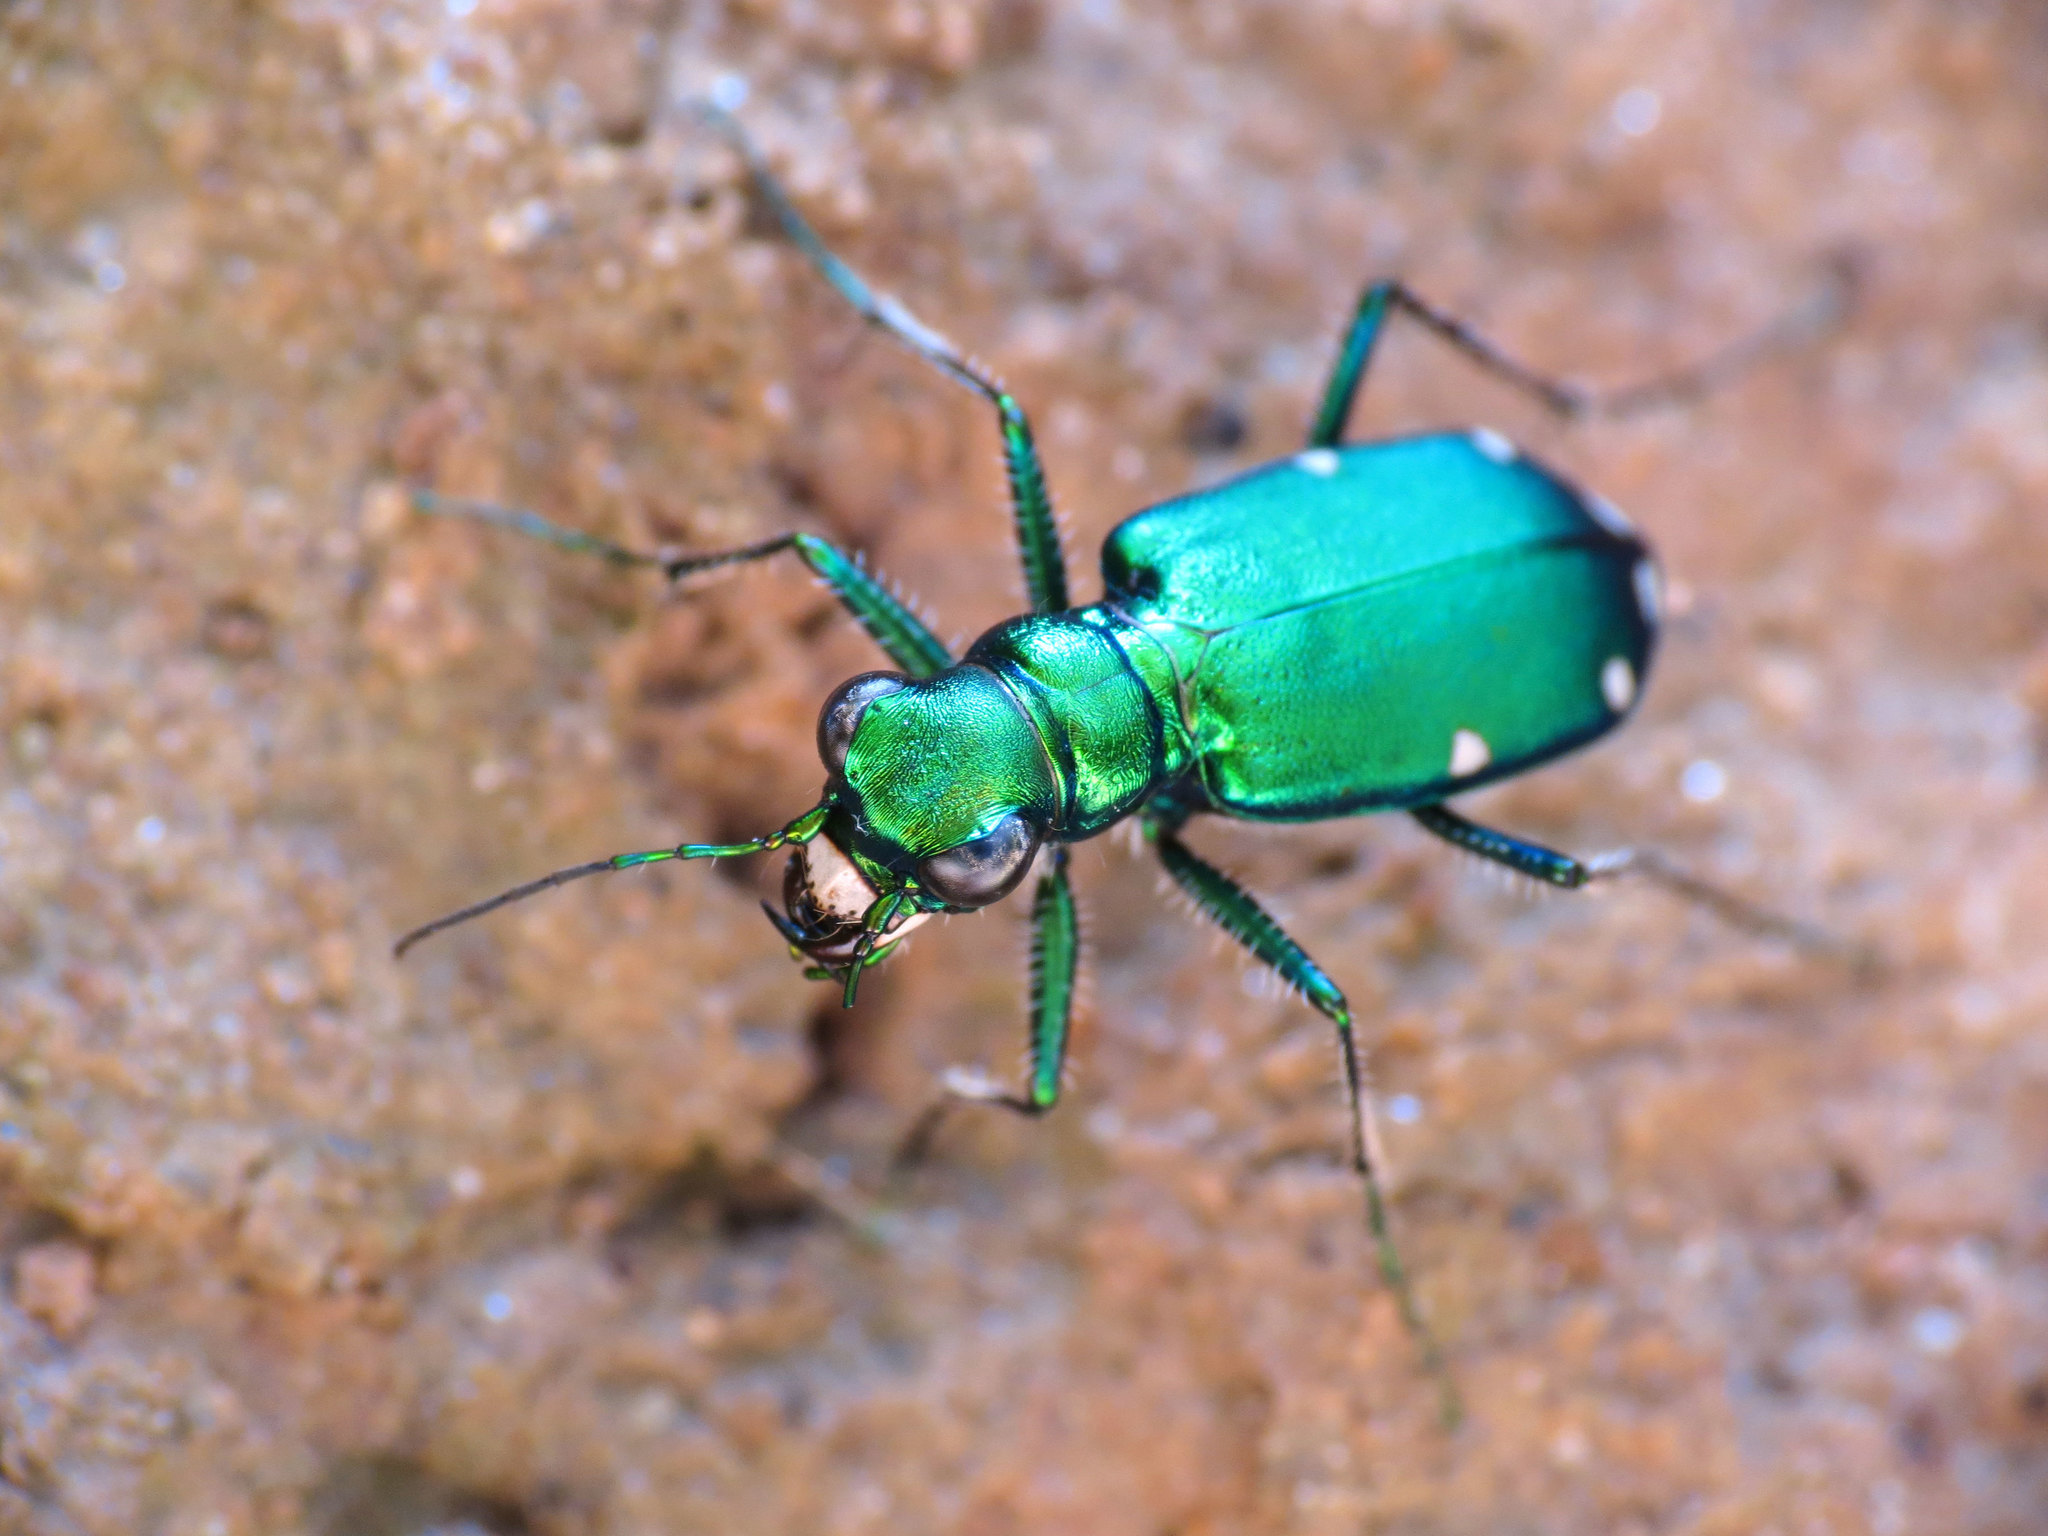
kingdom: Animalia
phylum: Arthropoda
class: Insecta
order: Coleoptera
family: Carabidae
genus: Cicindela
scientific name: Cicindela sexguttata
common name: Six-spotted tiger beetle
